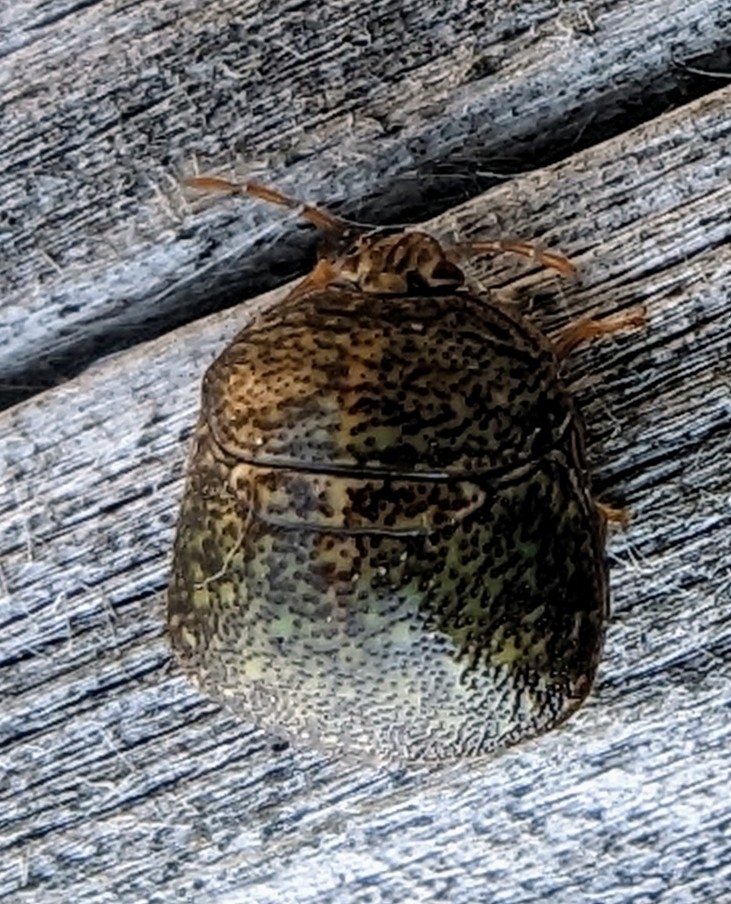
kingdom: Animalia
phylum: Arthropoda
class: Insecta
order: Hemiptera
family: Plataspidae
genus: Megacopta
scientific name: Megacopta cribraria
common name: Bean plataspid
